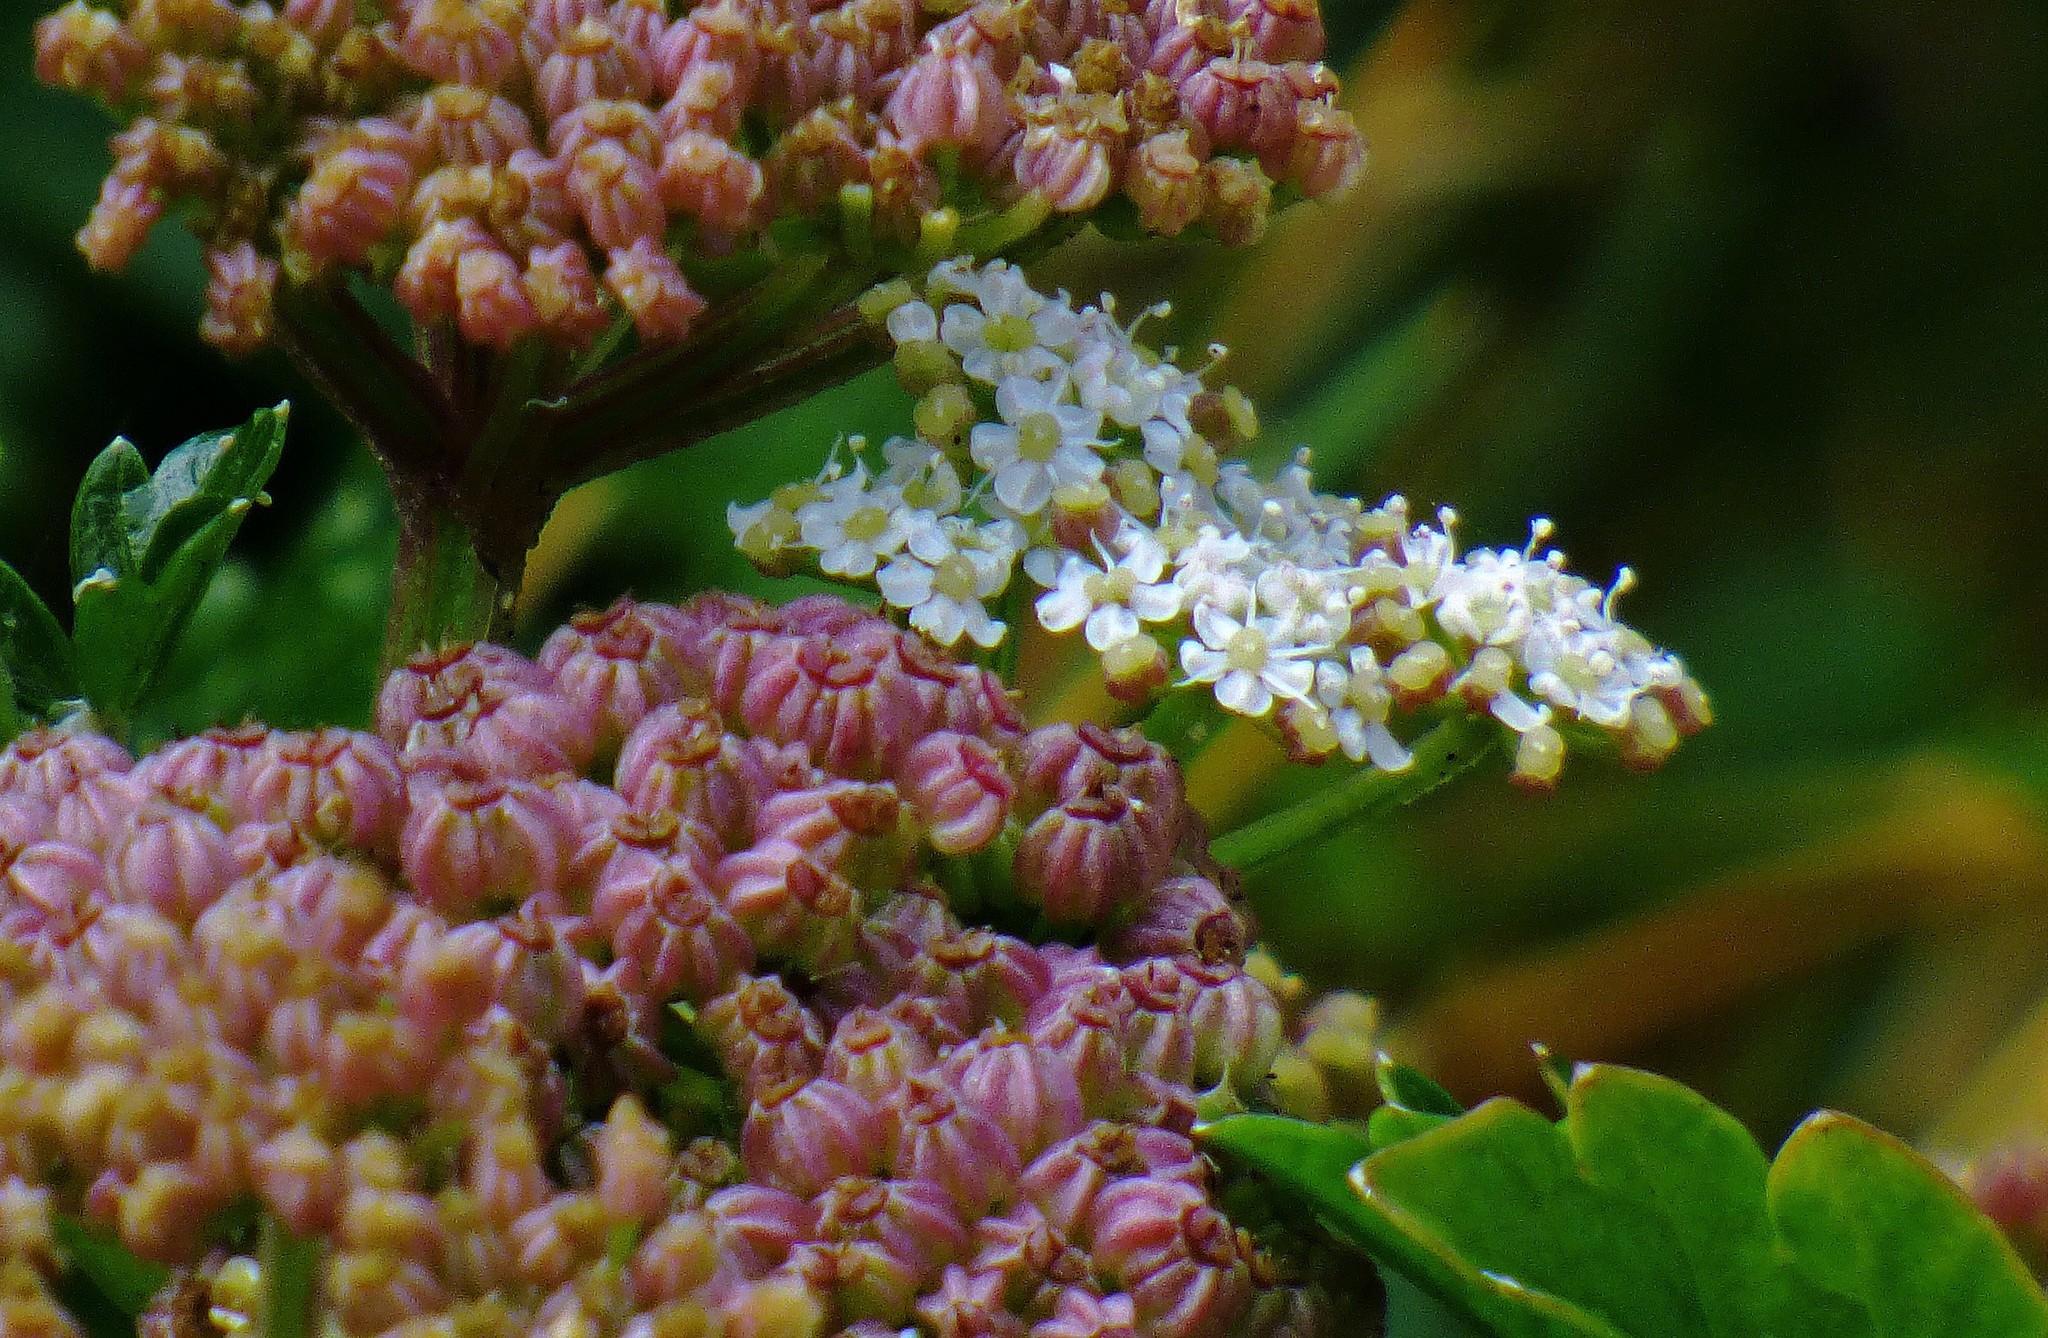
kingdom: Plantae
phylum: Tracheophyta
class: Magnoliopsida
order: Apiales
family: Apiaceae
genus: Apium
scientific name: Apium prostratum
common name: Prostrate marshwort
